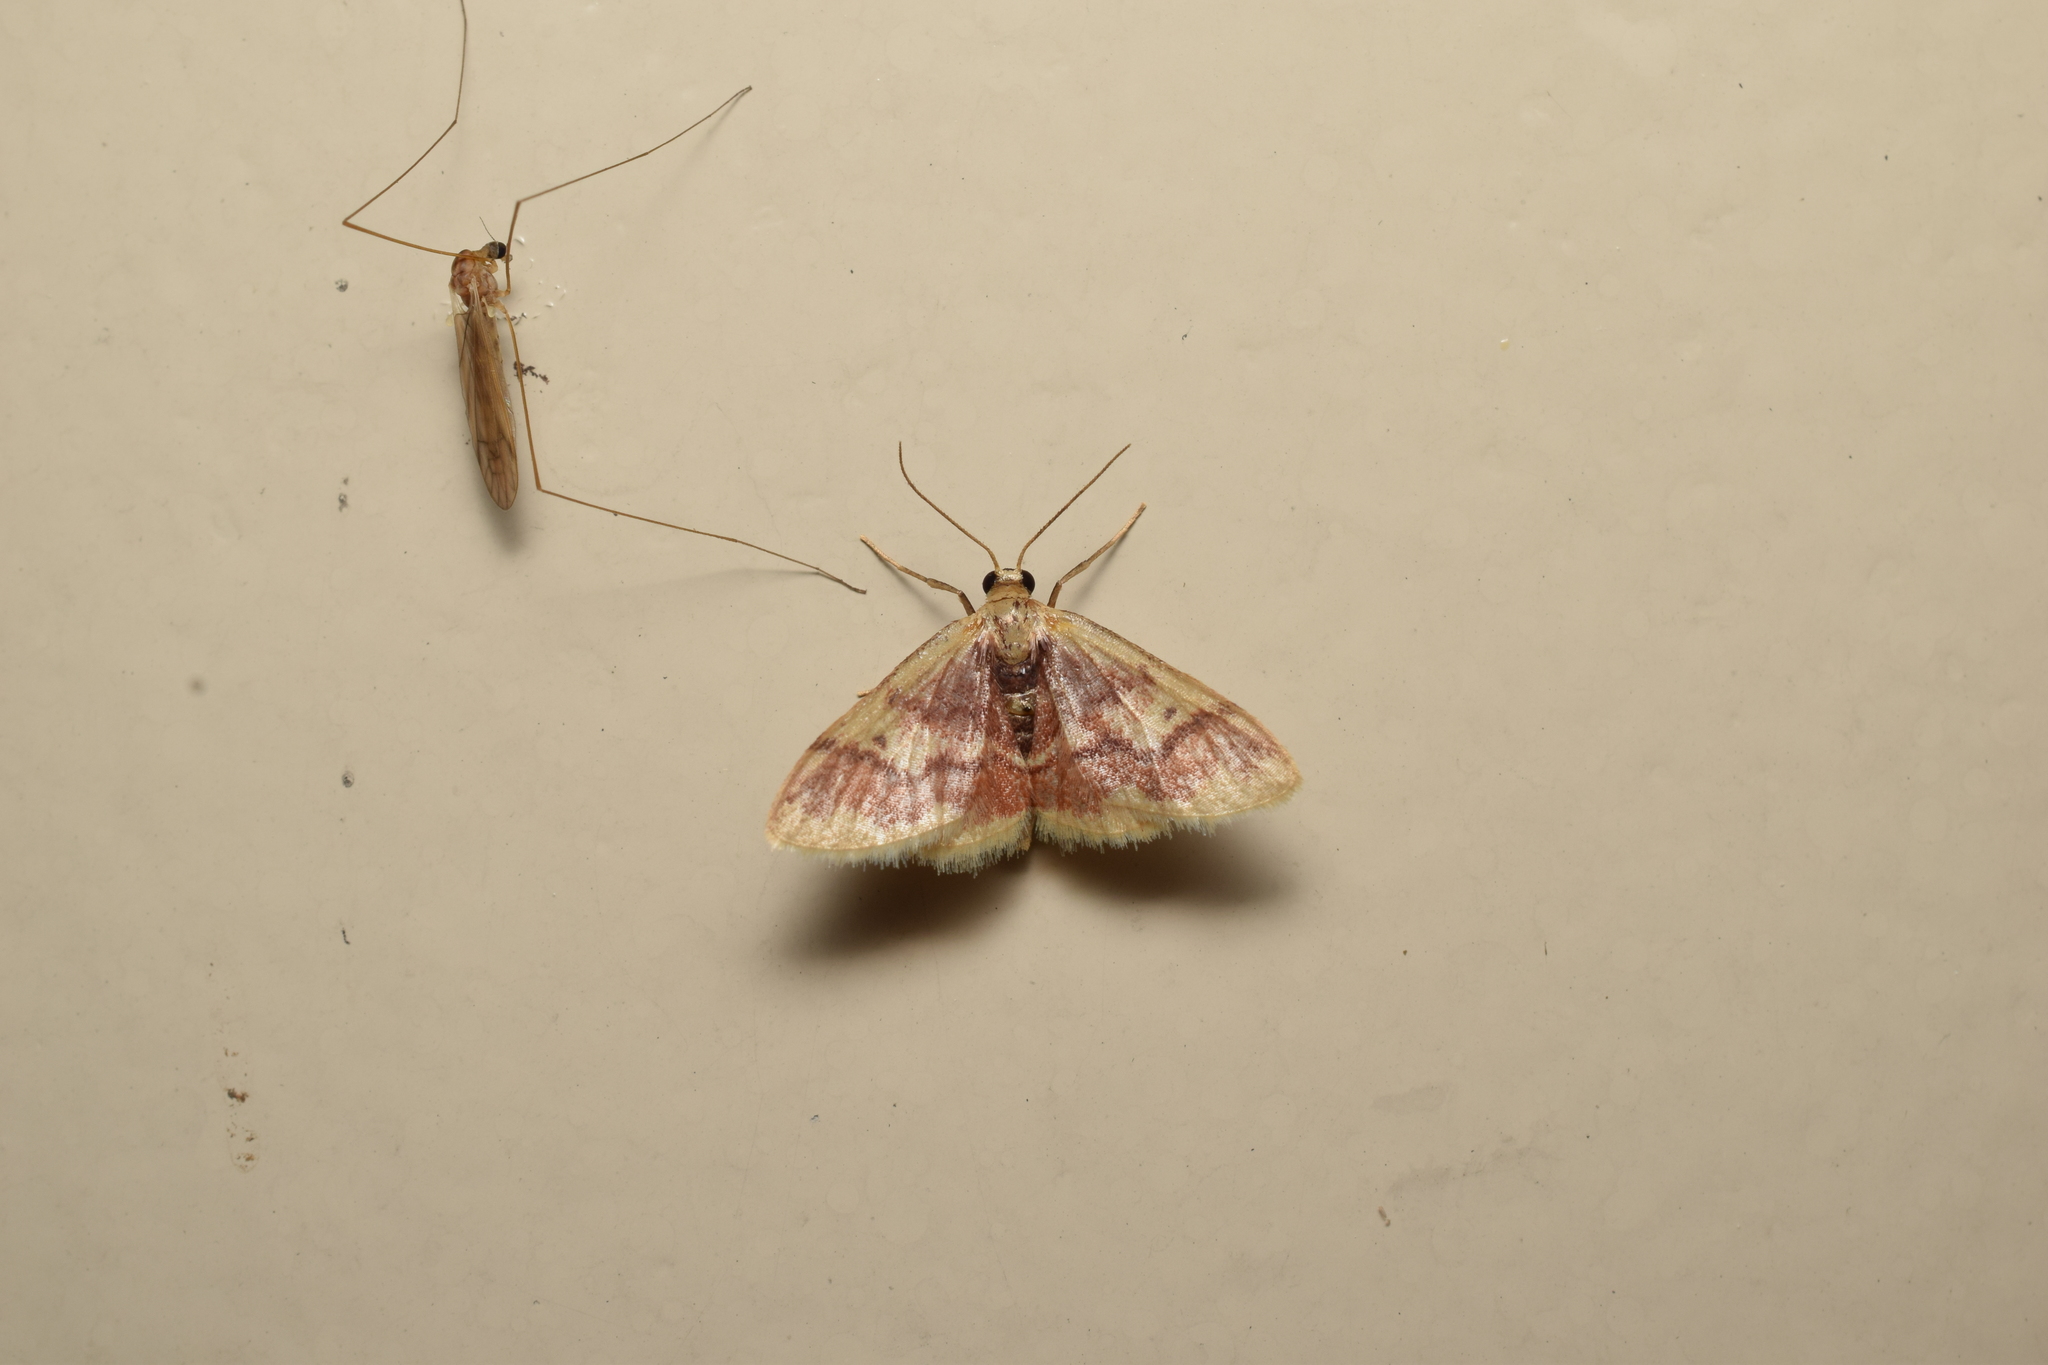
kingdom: Animalia
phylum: Arthropoda
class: Insecta
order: Lepidoptera
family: Geometridae
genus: Idaea
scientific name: Idaea roseomarginaria
